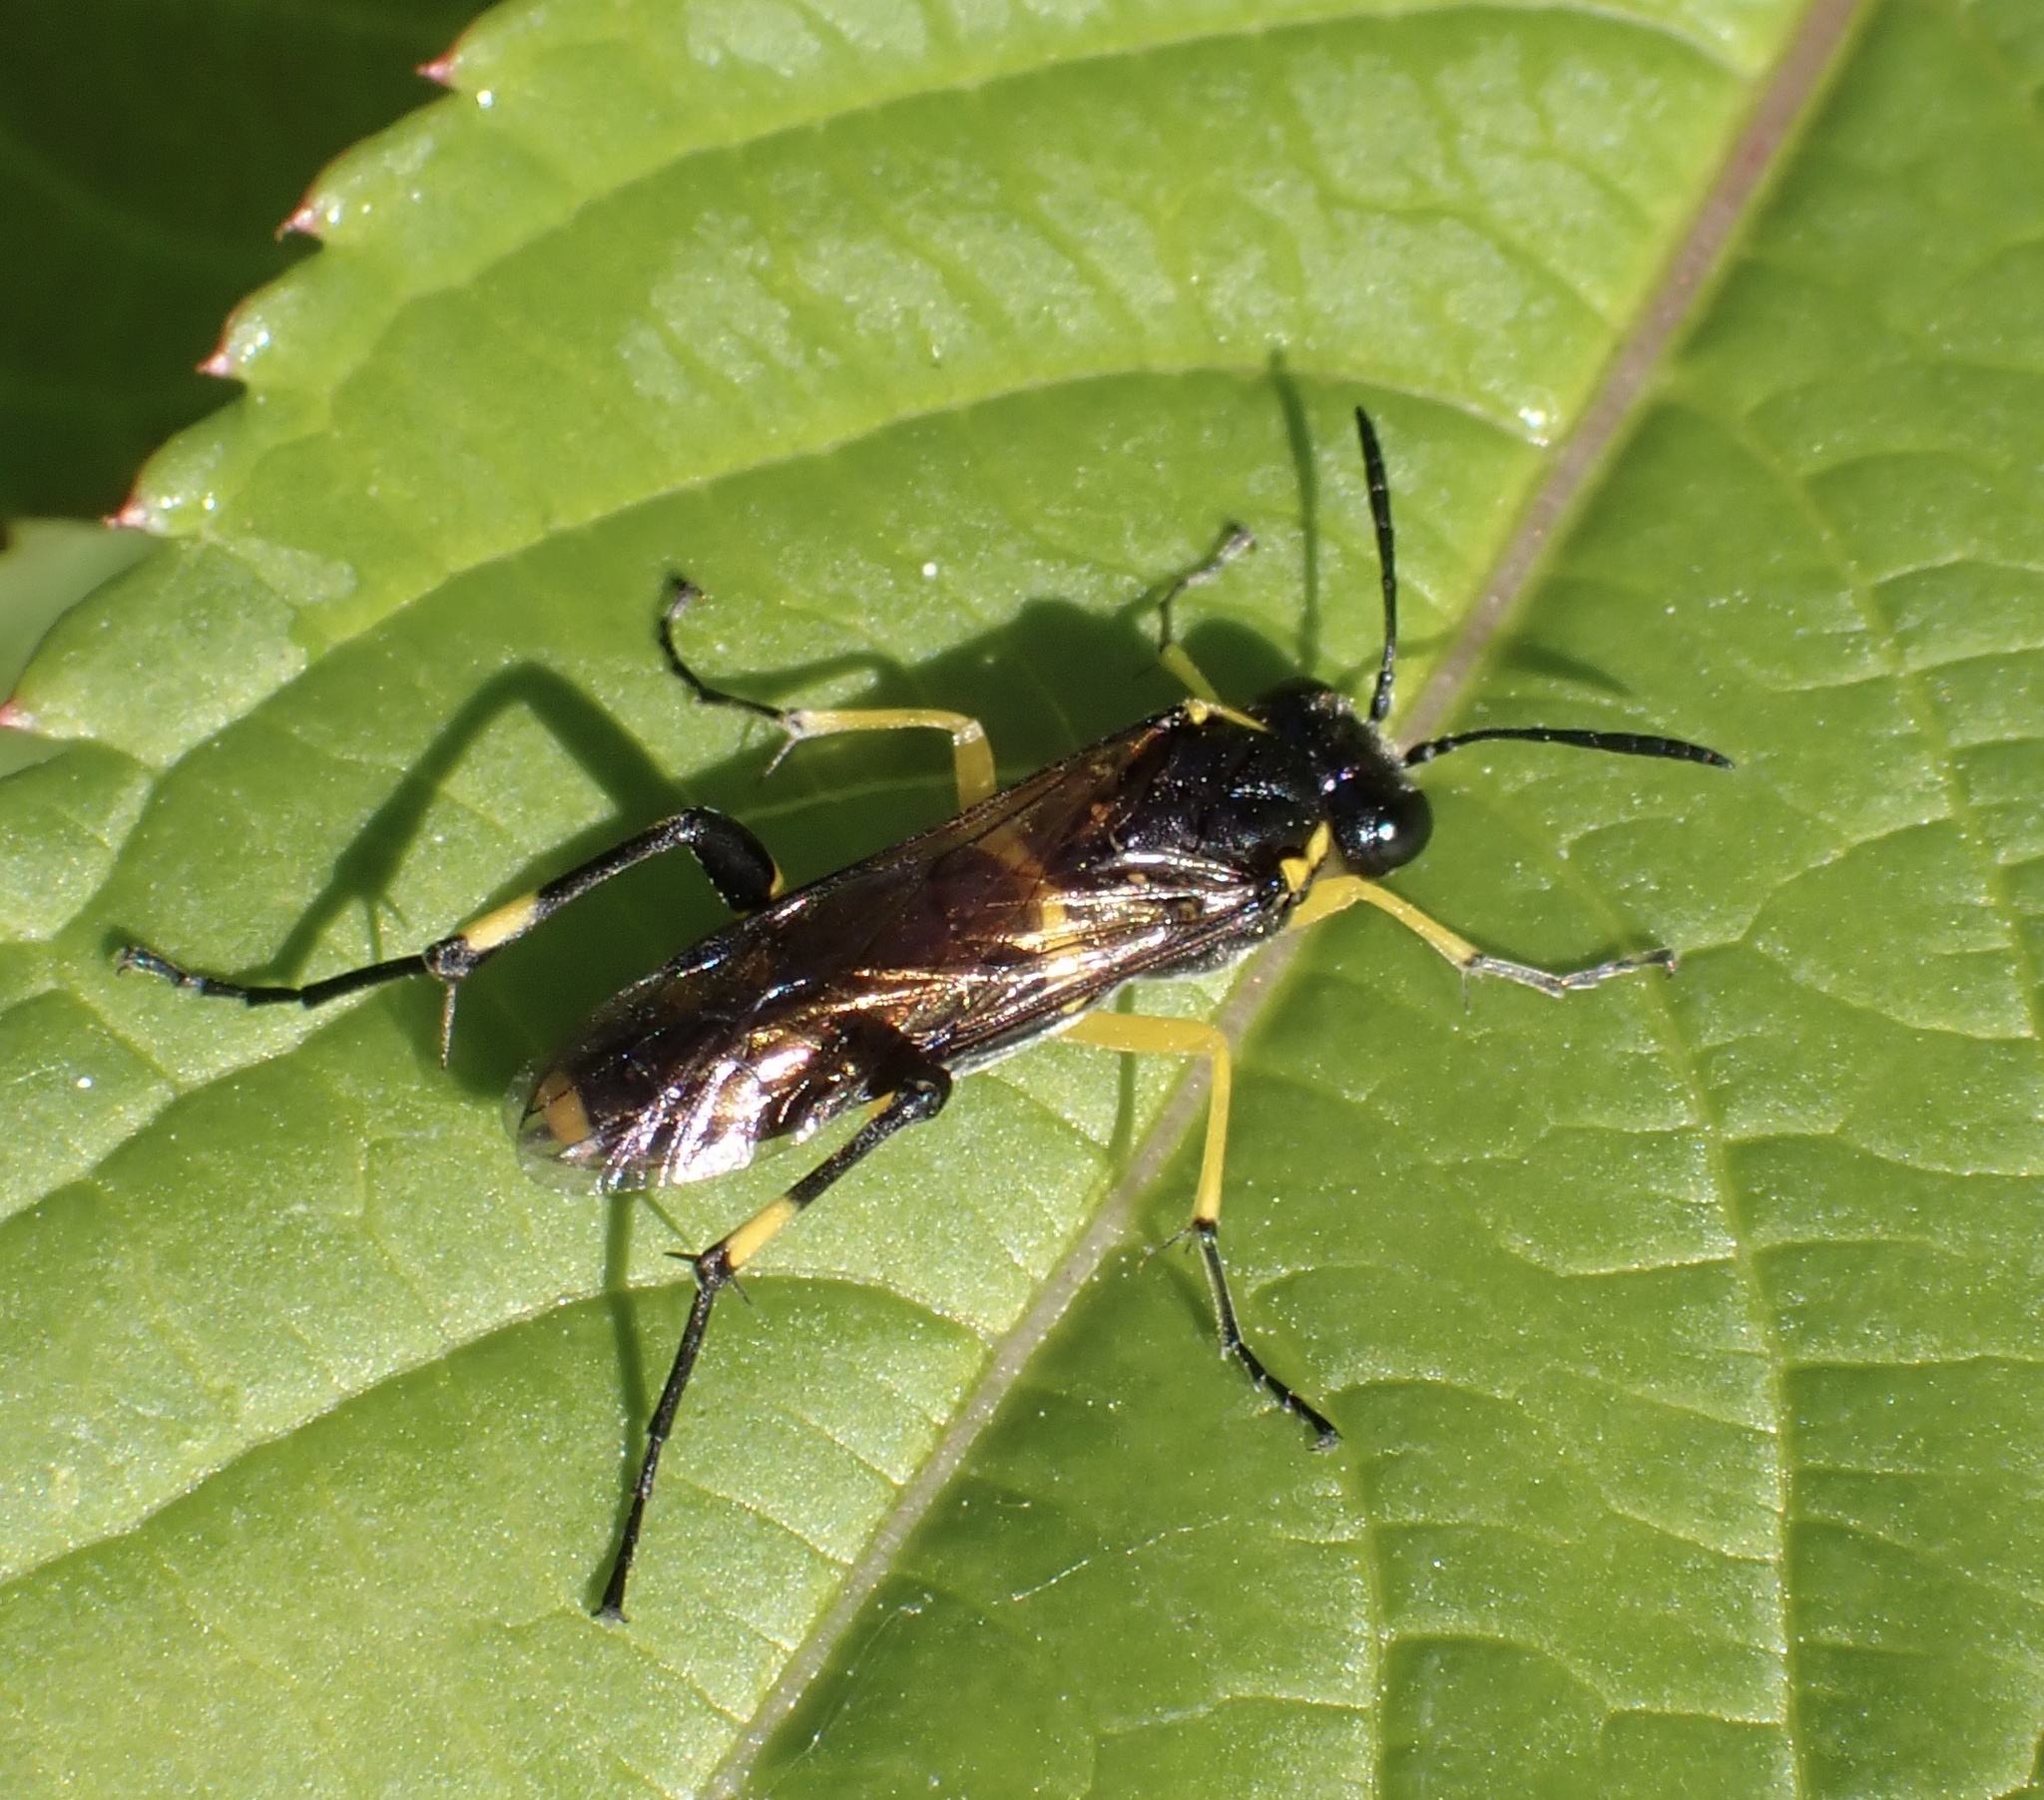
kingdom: Animalia
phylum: Arthropoda
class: Insecta
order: Hymenoptera
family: Tenthredinidae
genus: Macrophya
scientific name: Macrophya montana
